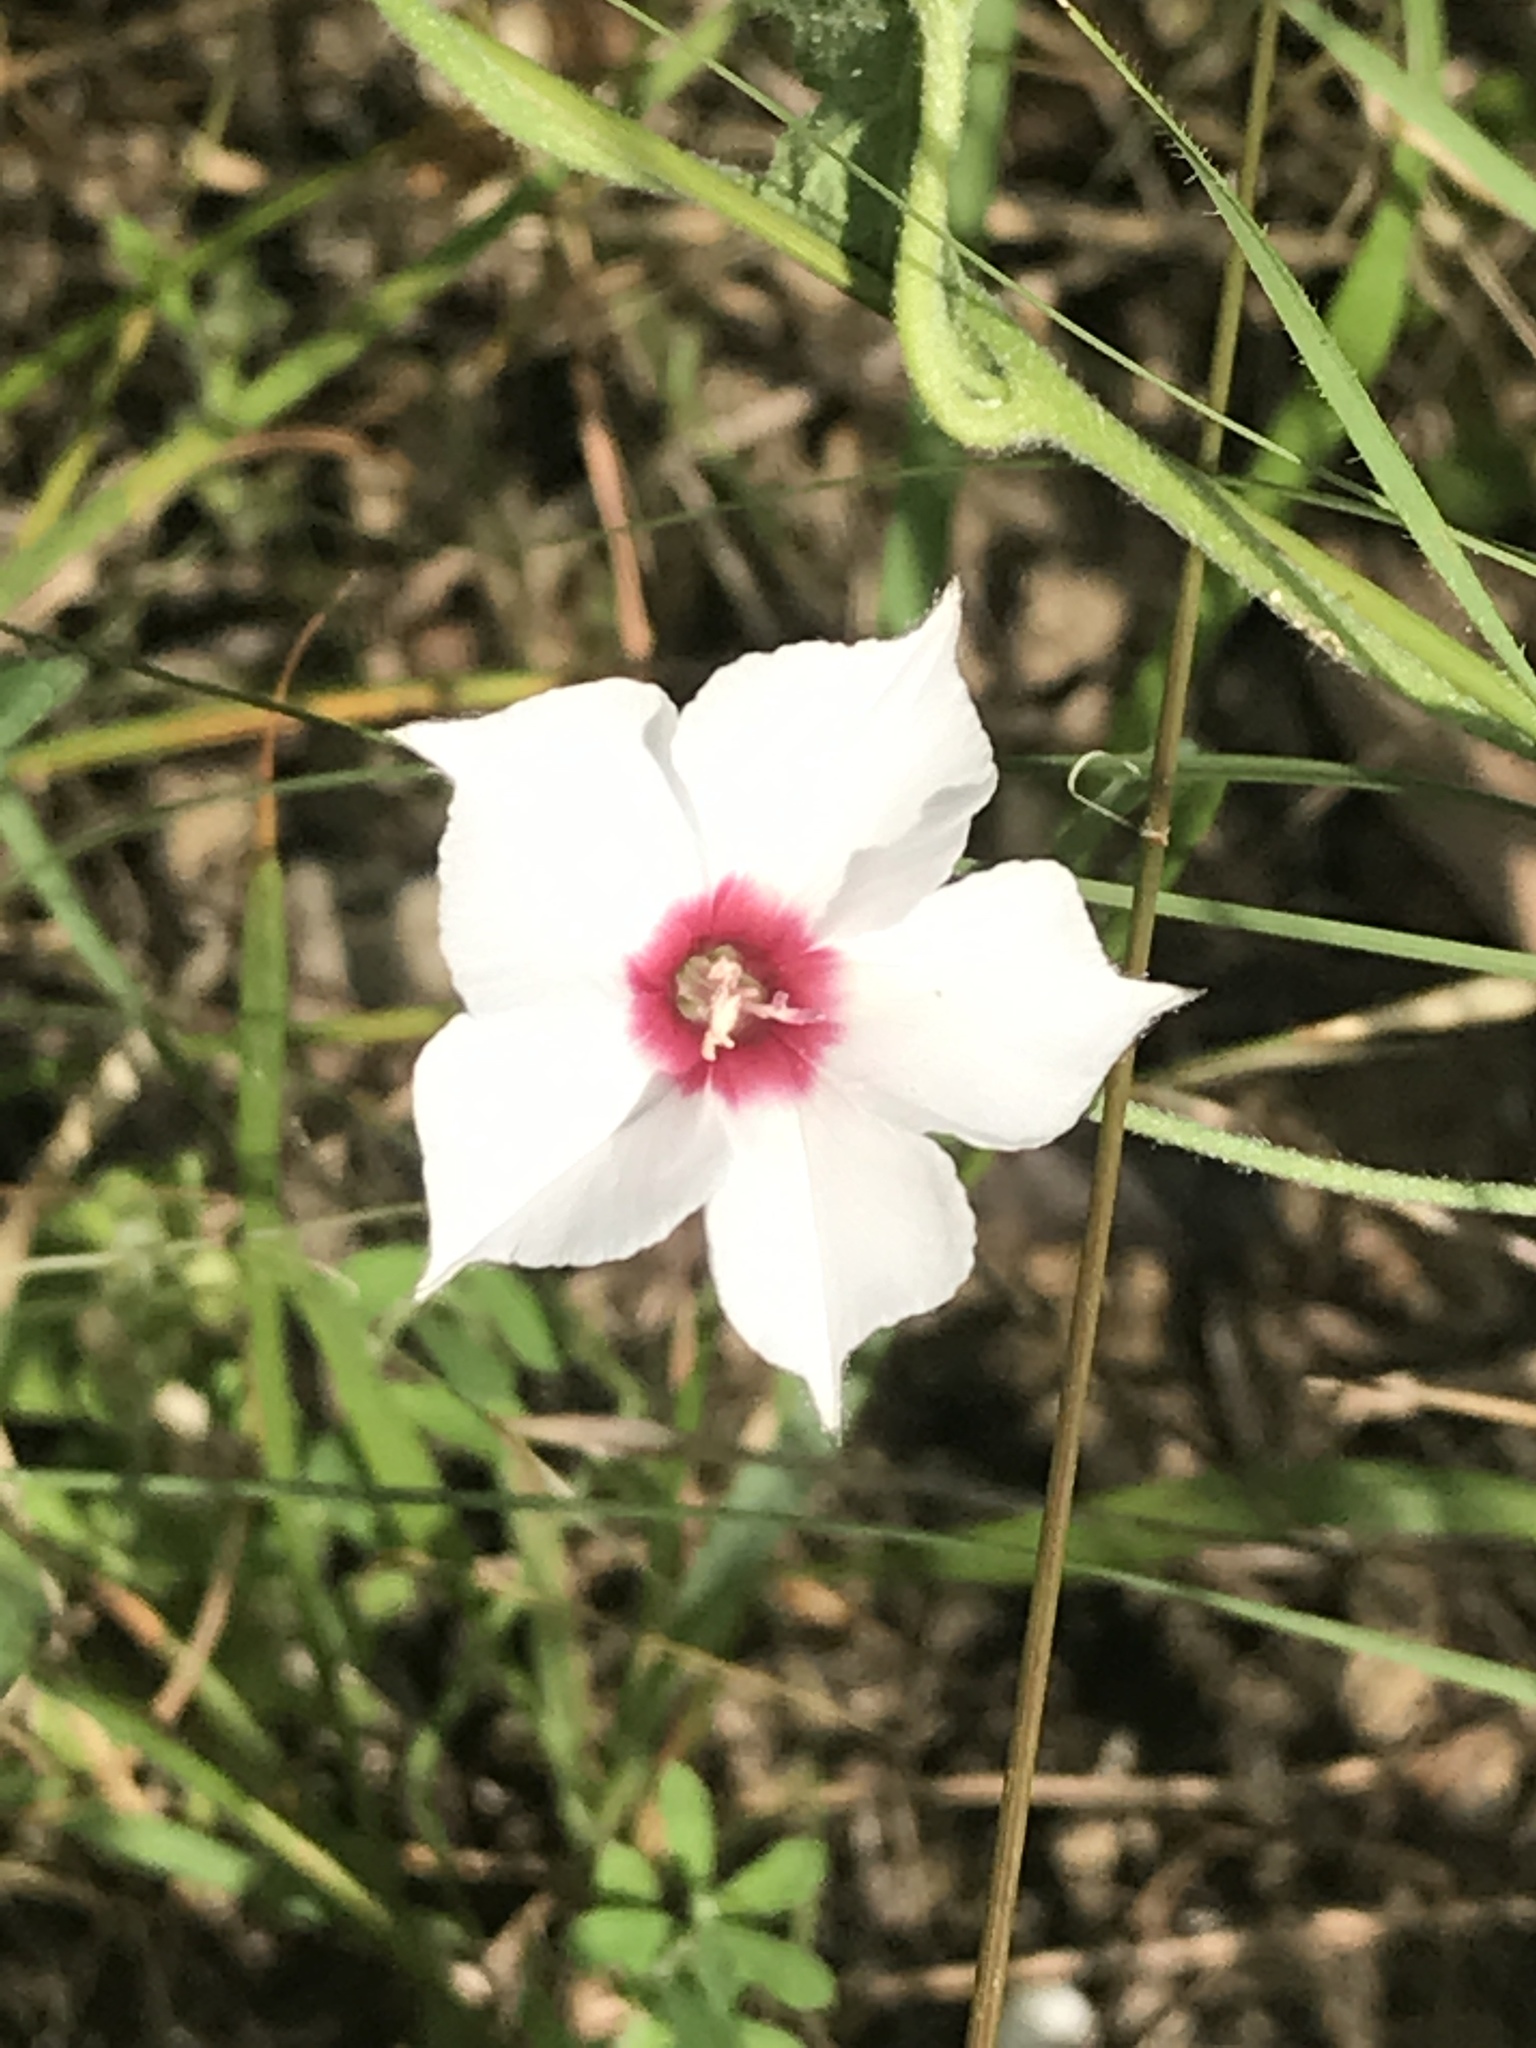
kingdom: Plantae
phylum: Tracheophyta
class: Magnoliopsida
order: Solanales
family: Convolvulaceae
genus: Convolvulus
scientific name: Convolvulus equitans
